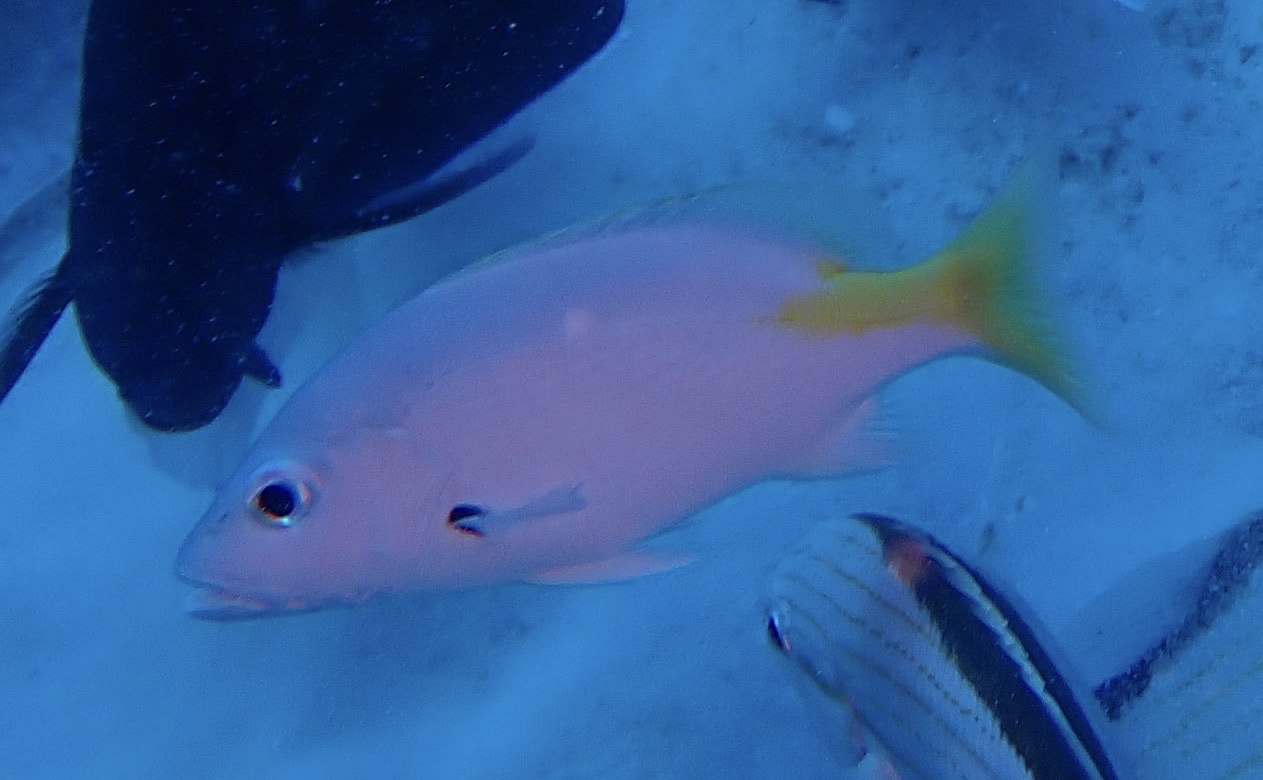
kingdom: Animalia
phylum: Chordata
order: Perciformes
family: Lutjanidae
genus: Lutjanus
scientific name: Lutjanus buccanella
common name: Blackfin snapper
